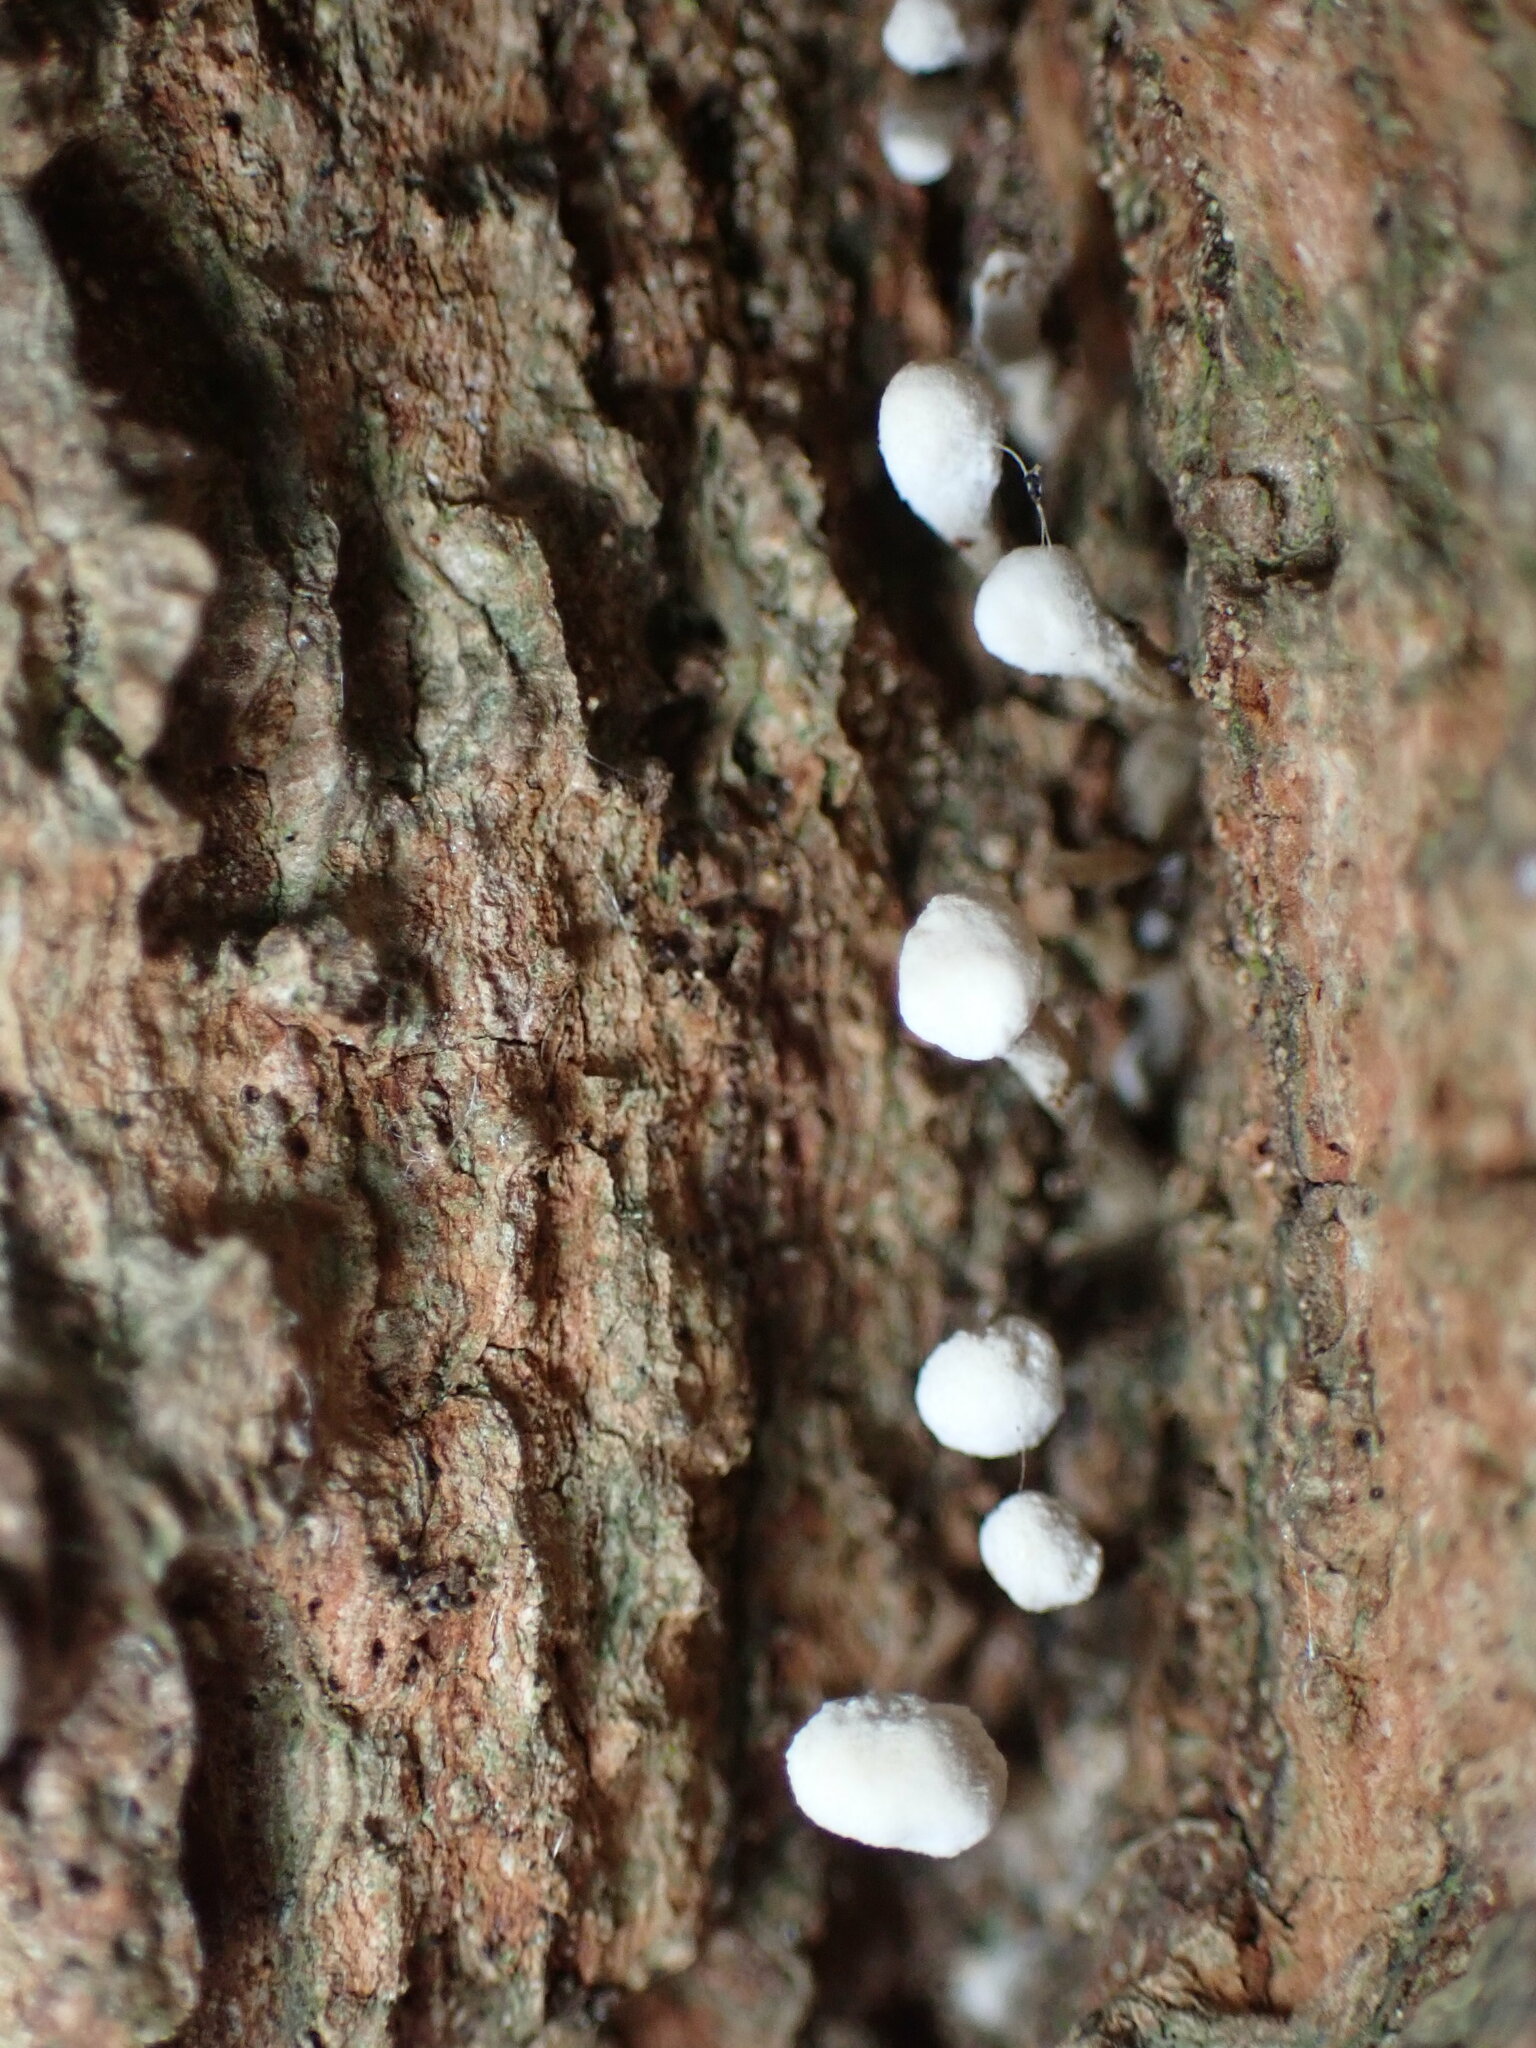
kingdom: Fungi
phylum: Basidiomycota
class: Atractiellomycetes
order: Atractiellales
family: Phleogenaceae
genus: Phleogena
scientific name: Phleogena faginea
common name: Fenugreek stalkball
